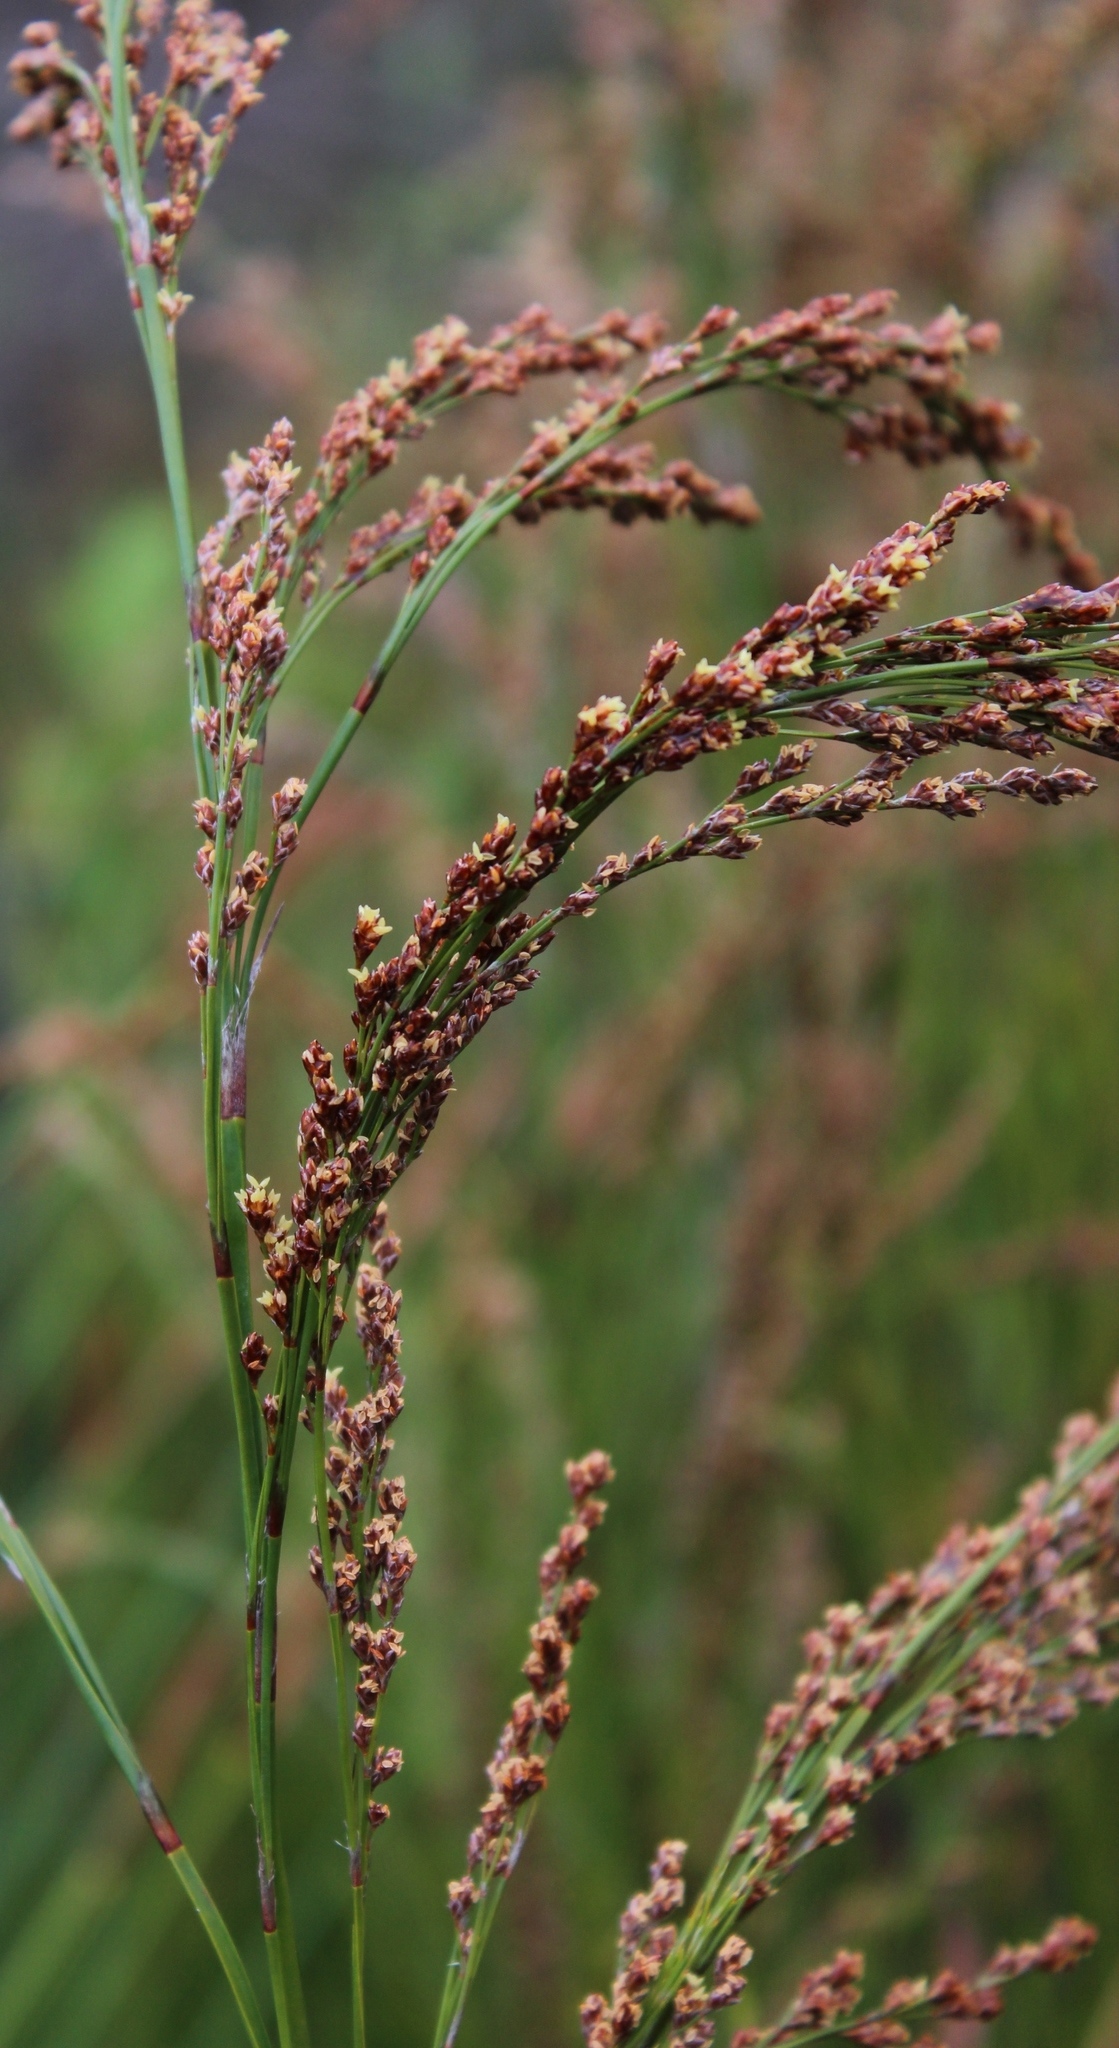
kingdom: Plantae
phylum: Tracheophyta
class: Liliopsida
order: Poales
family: Restionaceae
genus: Restio
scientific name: Restio paniculatus
